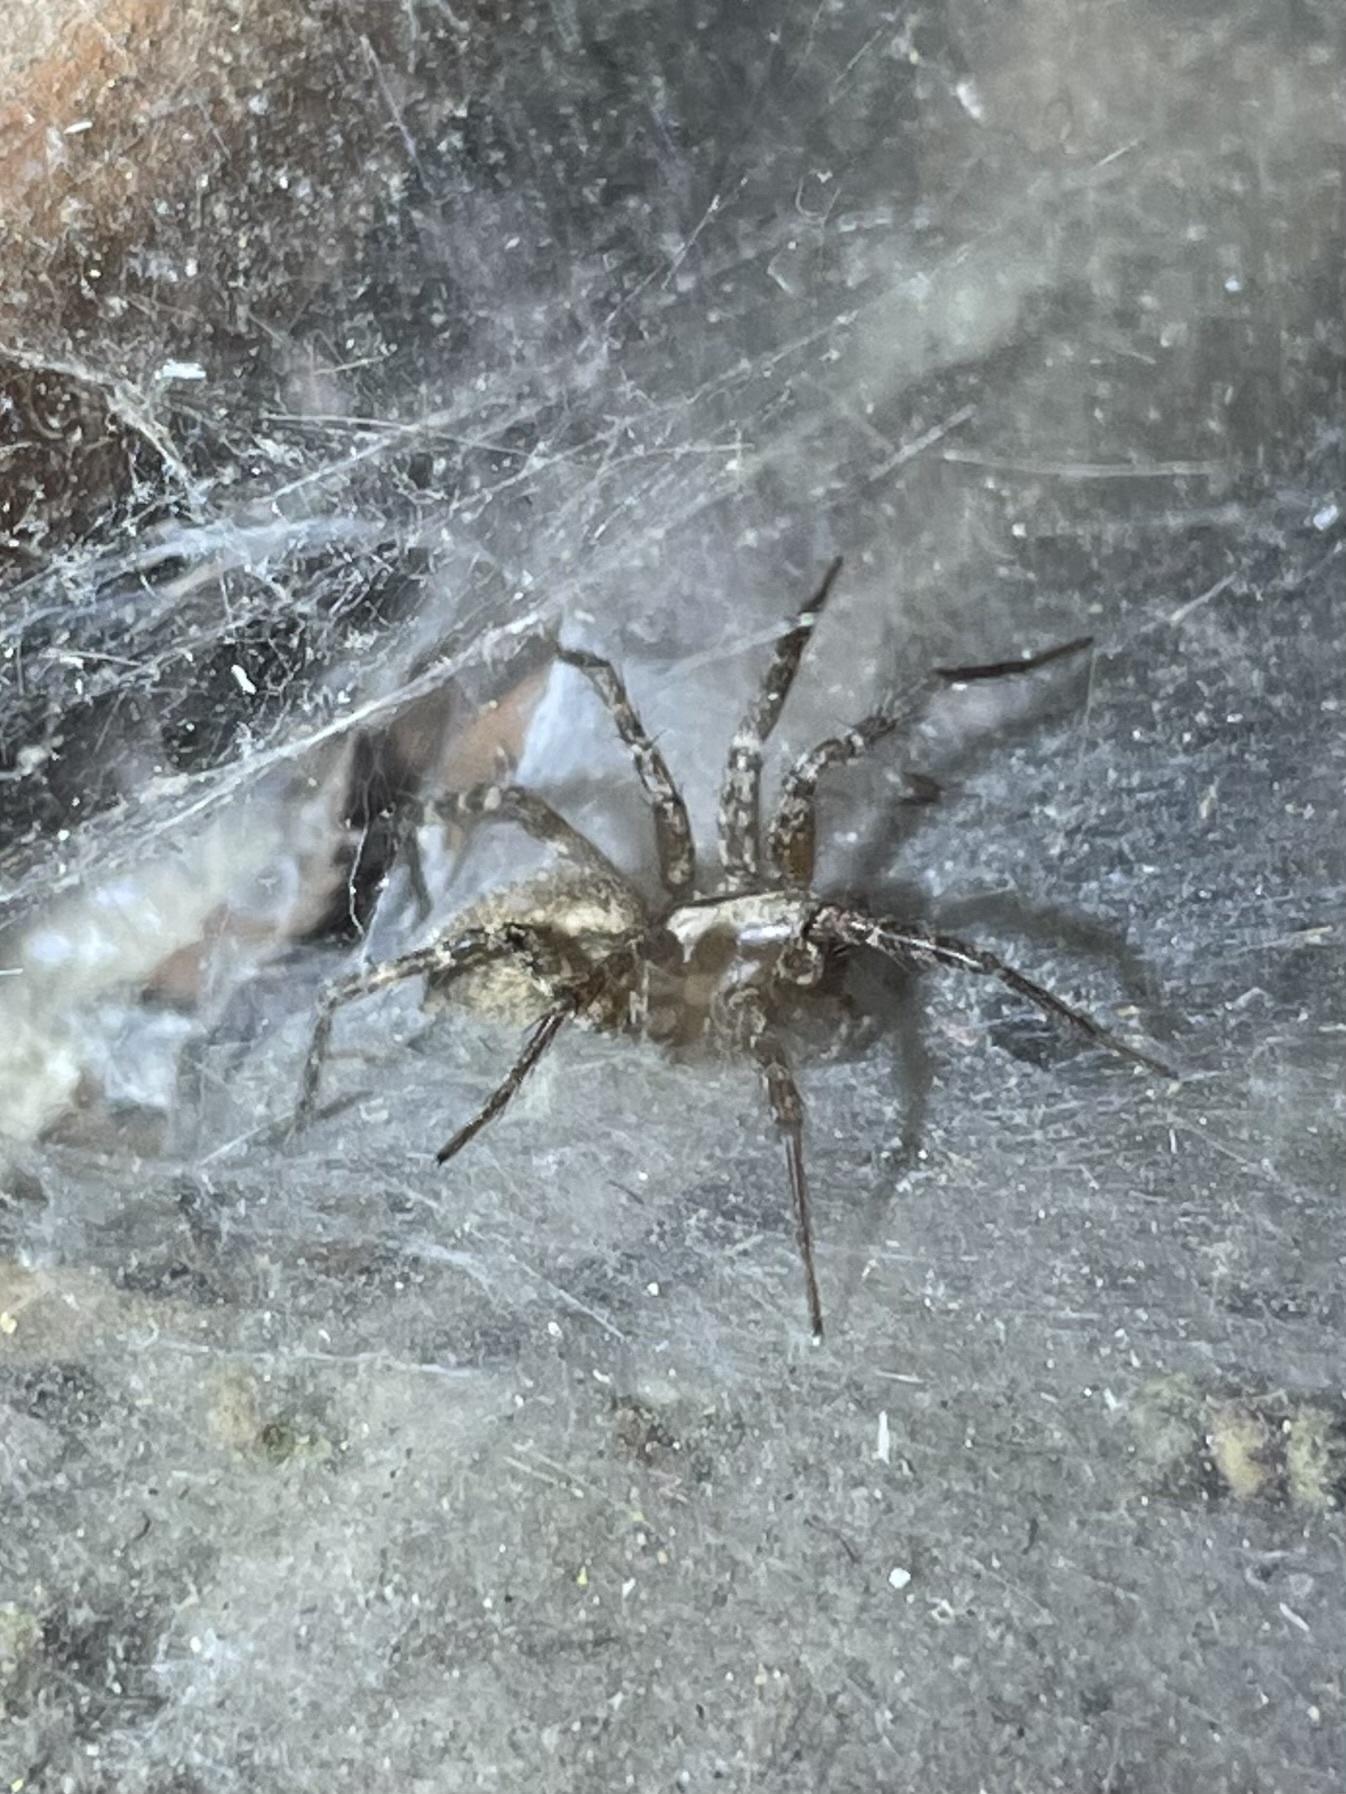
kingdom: Animalia
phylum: Arthropoda
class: Arachnida
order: Araneae
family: Agelenidae
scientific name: Agelenidae
